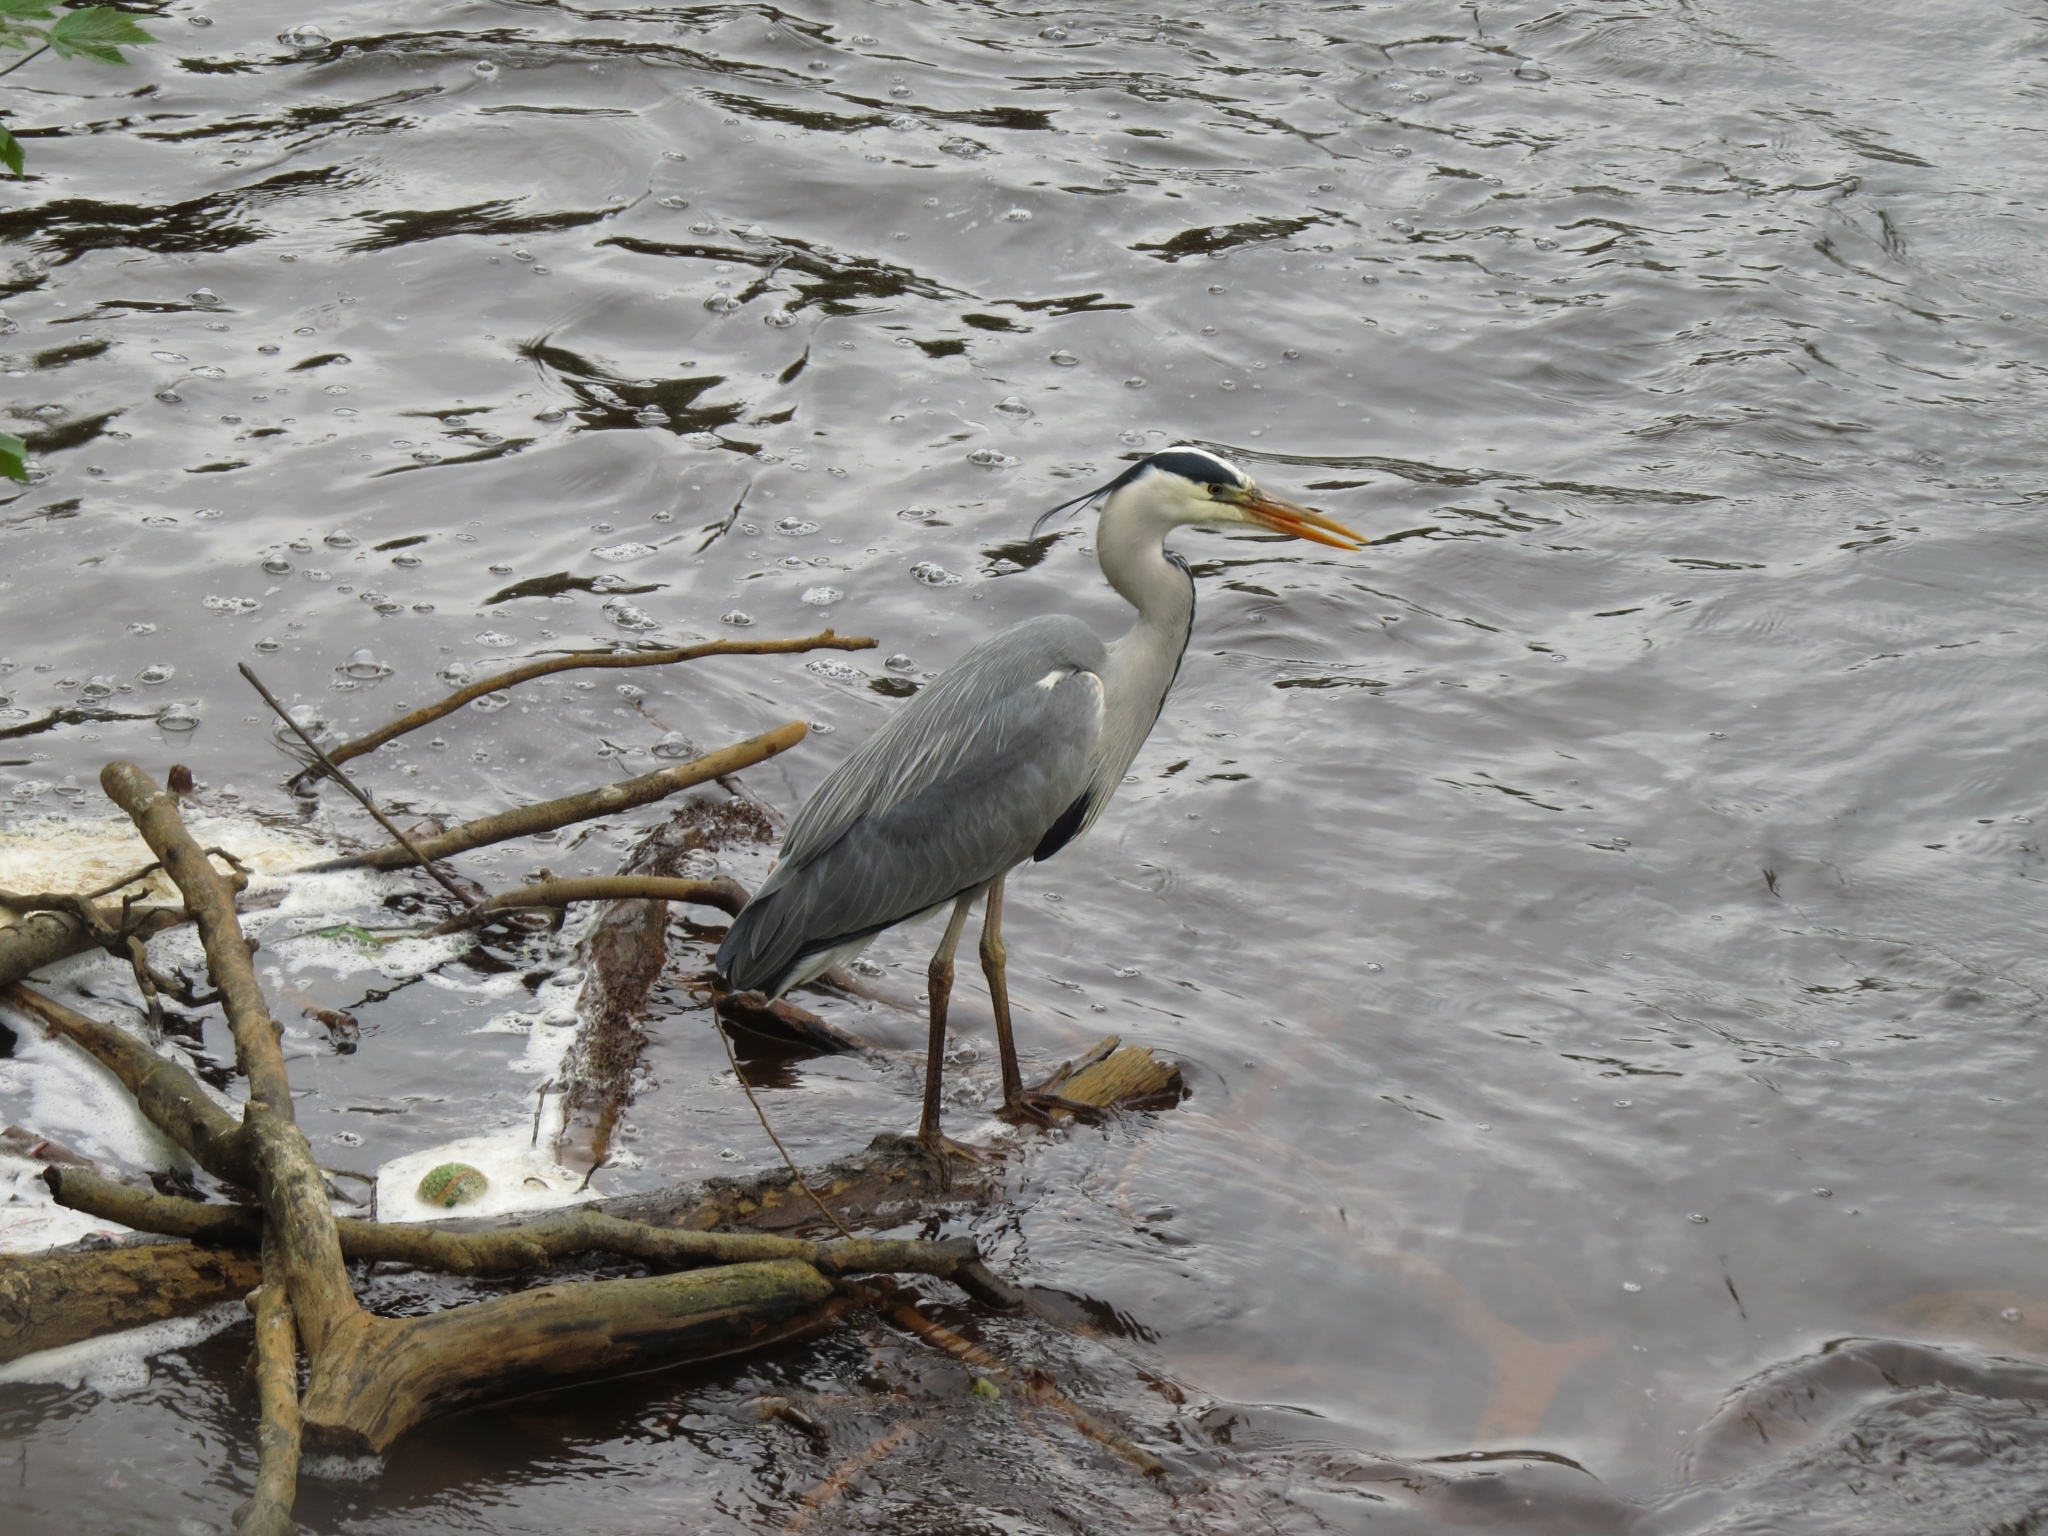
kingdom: Animalia
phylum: Chordata
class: Aves
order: Pelecaniformes
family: Ardeidae
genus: Ardea
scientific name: Ardea cinerea
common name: Grey heron
